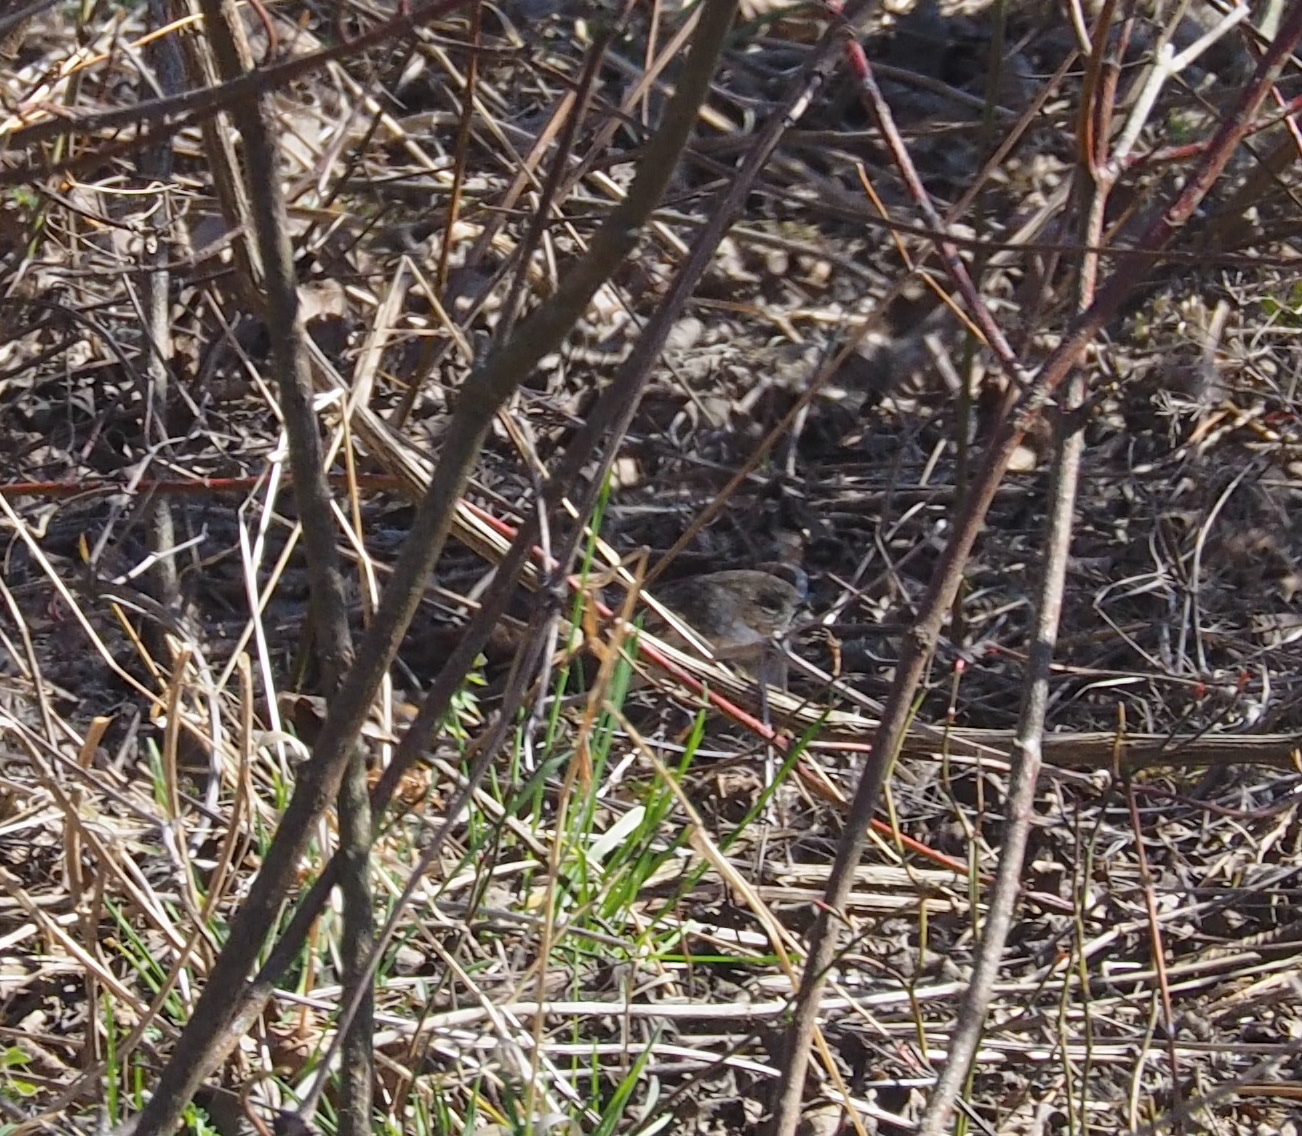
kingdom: Animalia
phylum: Chordata
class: Aves
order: Passeriformes
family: Prunellidae
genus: Prunella
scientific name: Prunella modularis
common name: Dunnock
